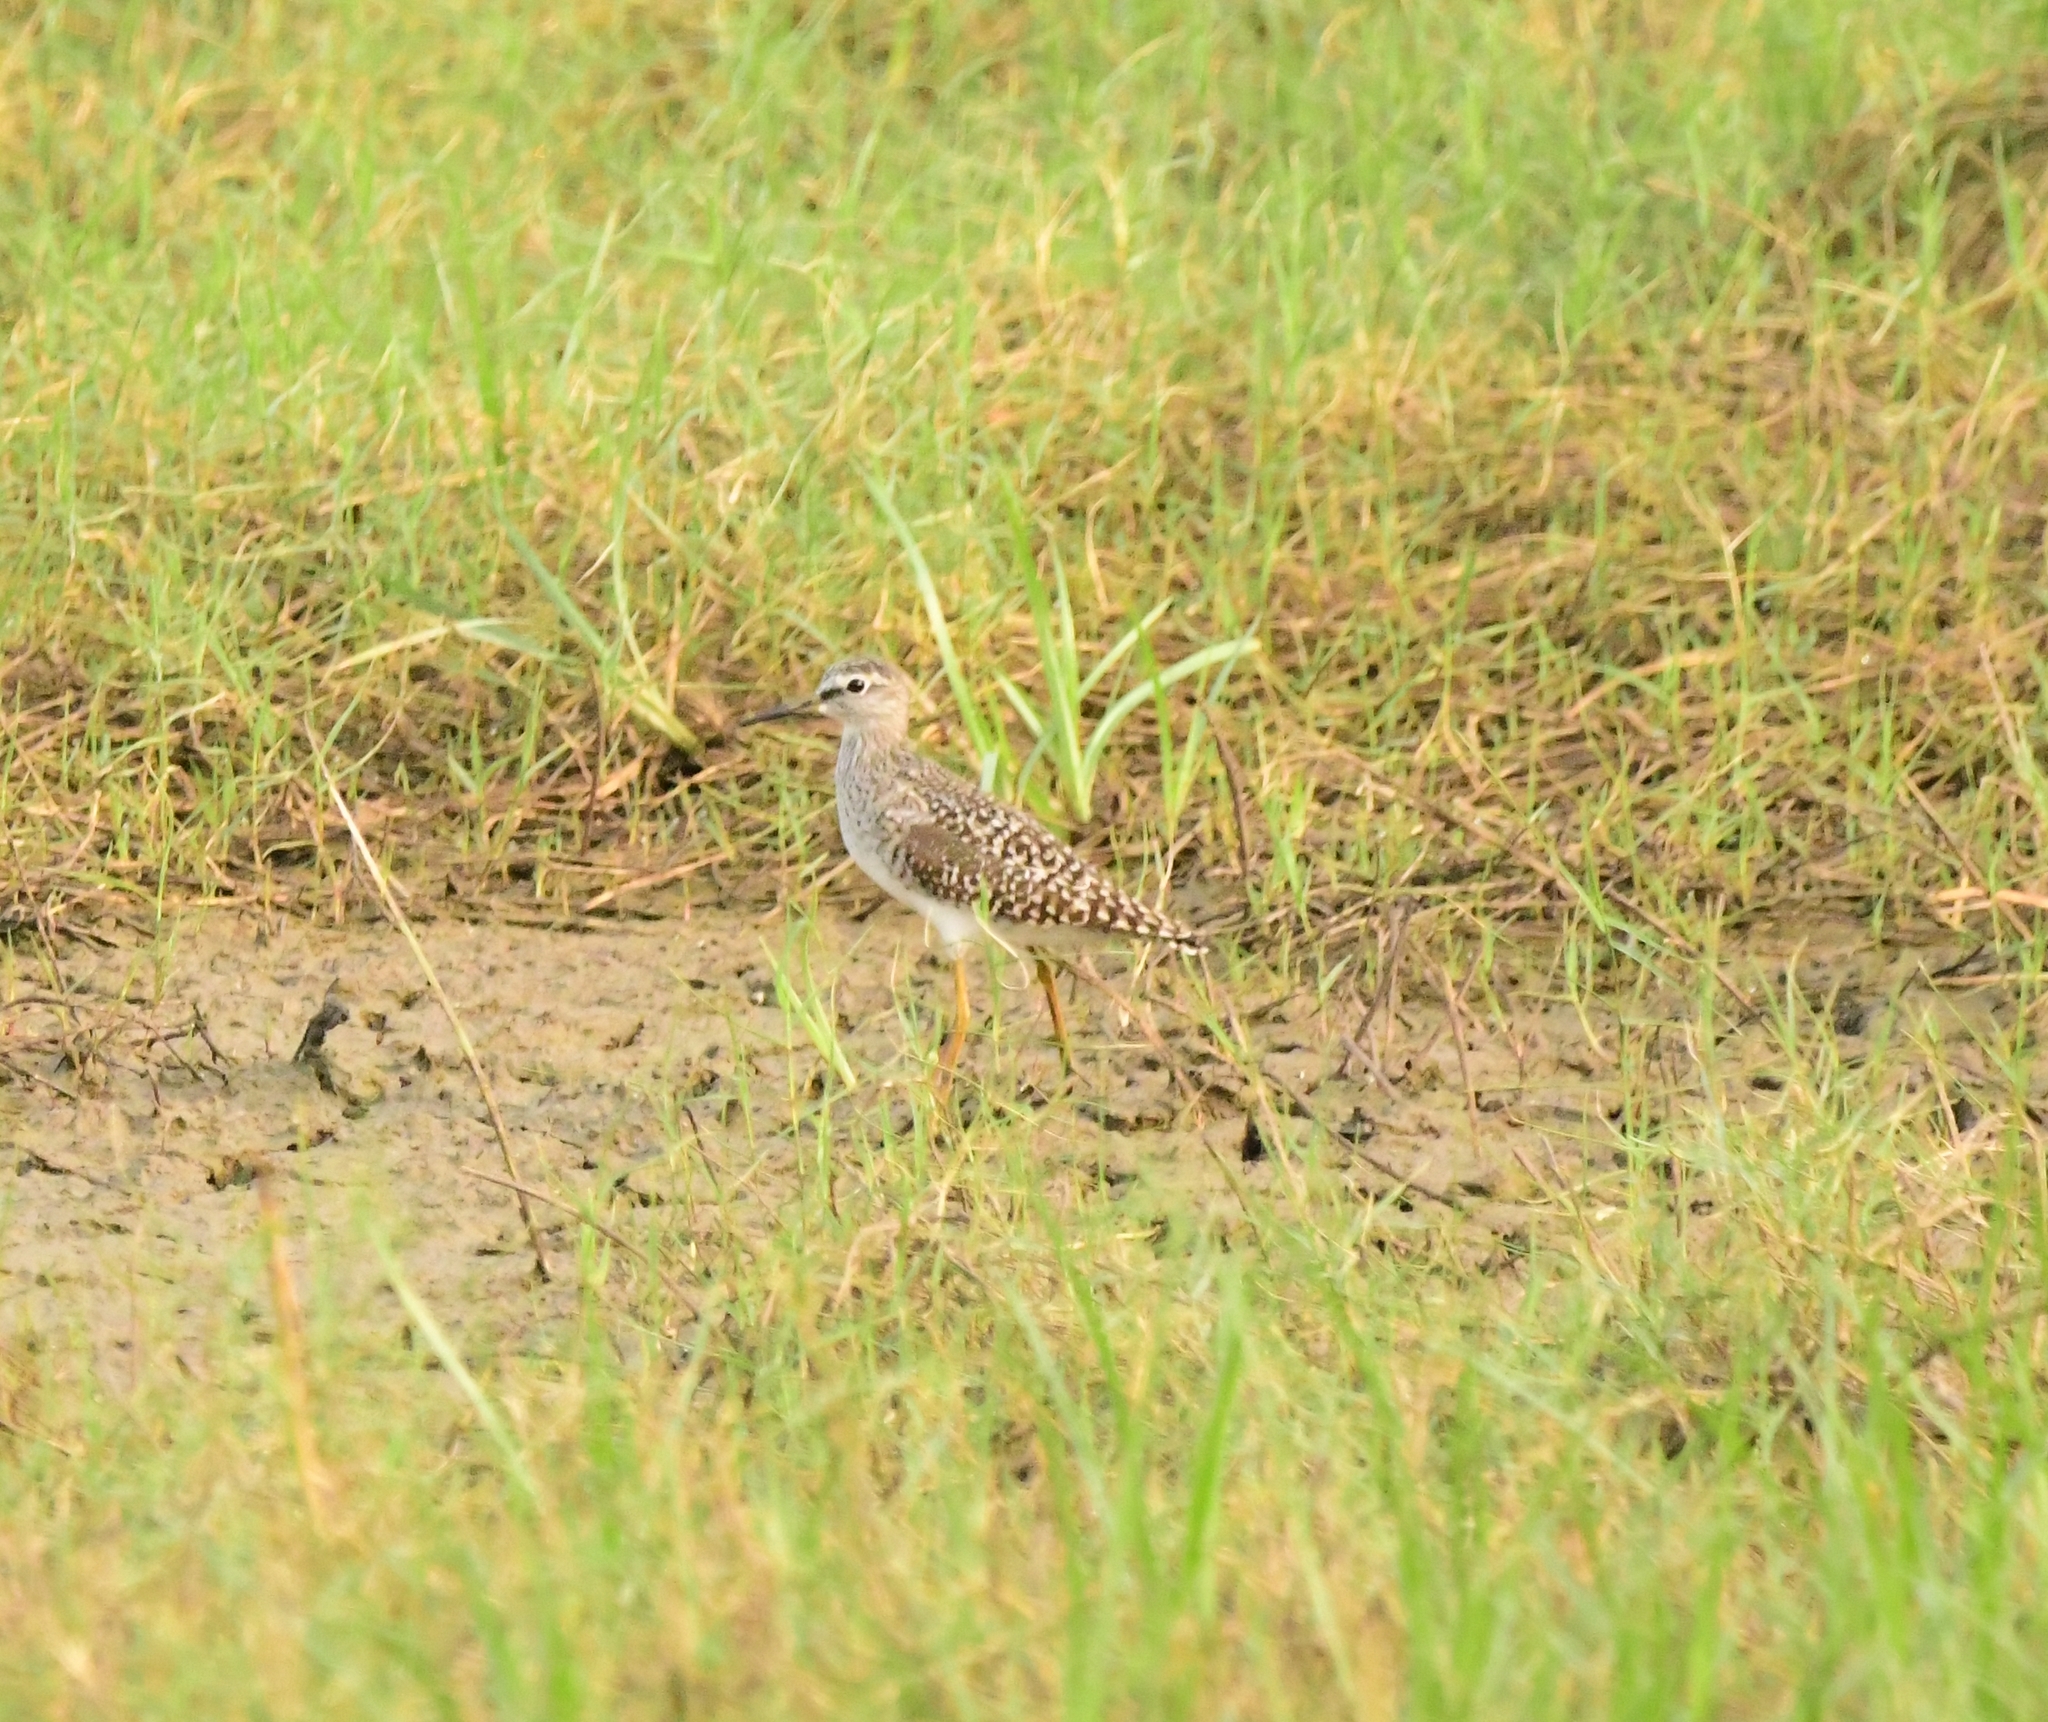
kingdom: Animalia
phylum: Chordata
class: Aves
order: Charadriiformes
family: Scolopacidae
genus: Tringa
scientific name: Tringa glareola
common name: Wood sandpiper
